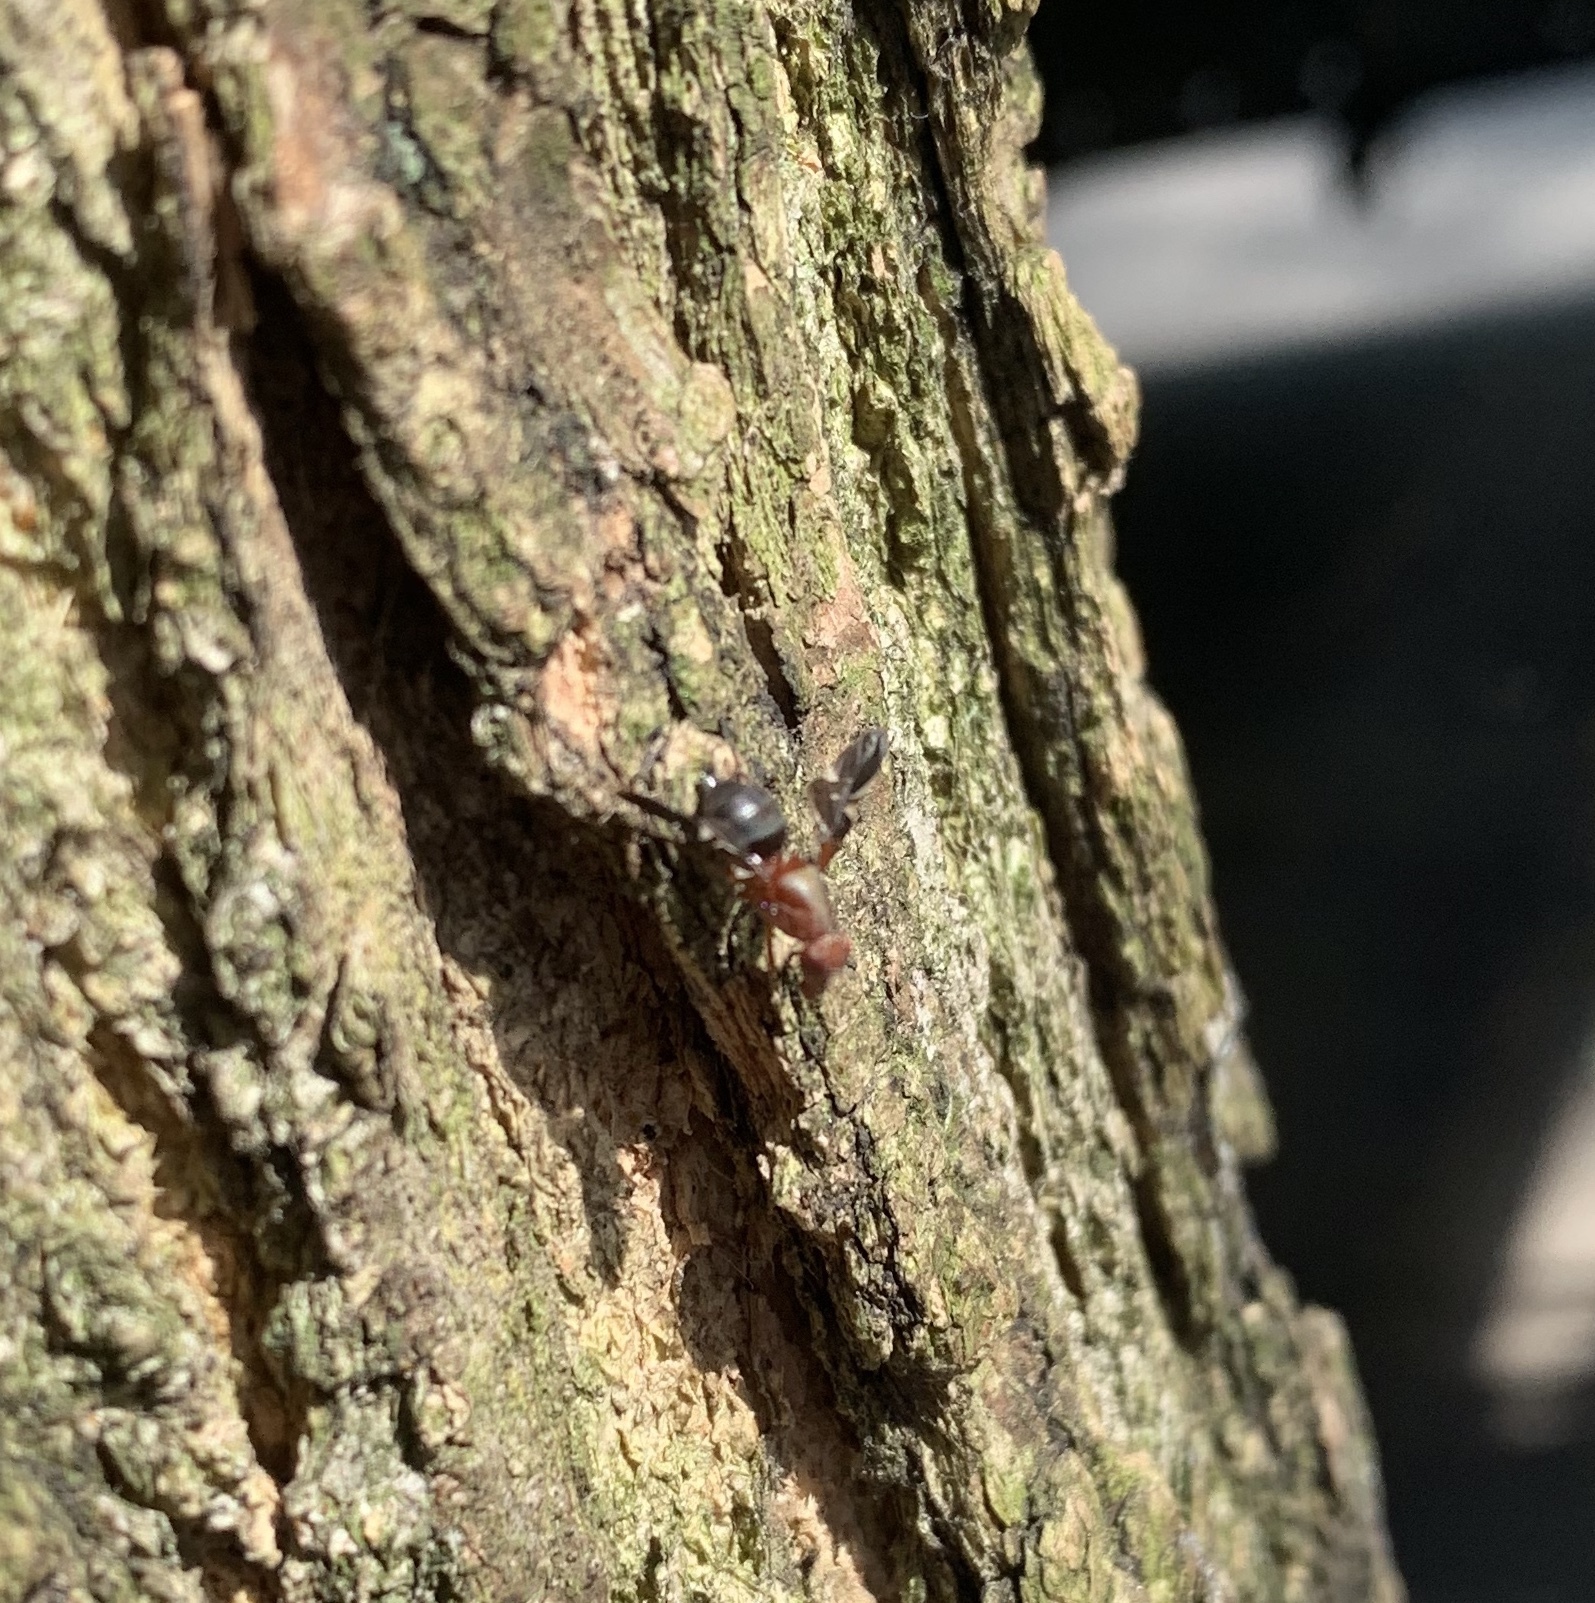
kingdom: Animalia
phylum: Arthropoda
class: Insecta
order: Diptera
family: Ulidiidae
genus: Delphinia
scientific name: Delphinia picta
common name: Common picture-winged fly
